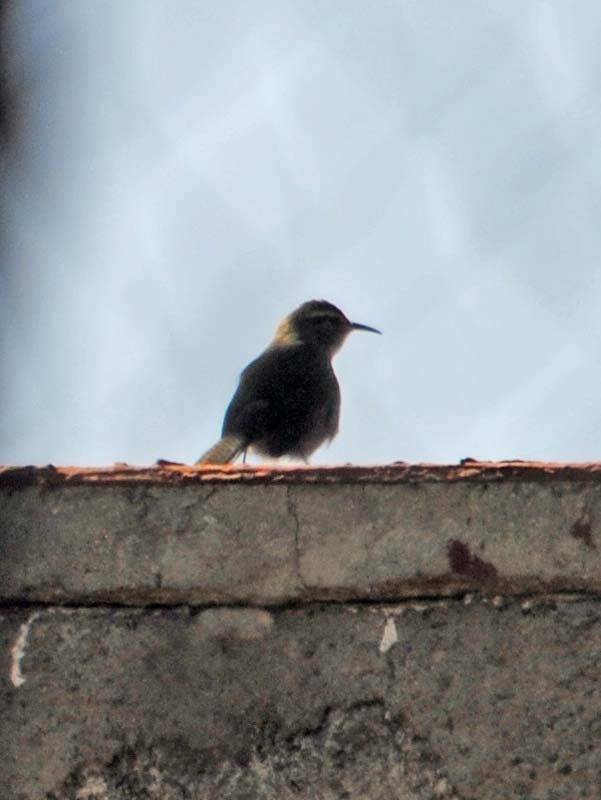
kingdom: Animalia
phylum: Chordata
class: Aves
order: Passeriformes
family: Troglodytidae
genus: Thryomanes
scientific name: Thryomanes bewickii
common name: Bewick's wren
